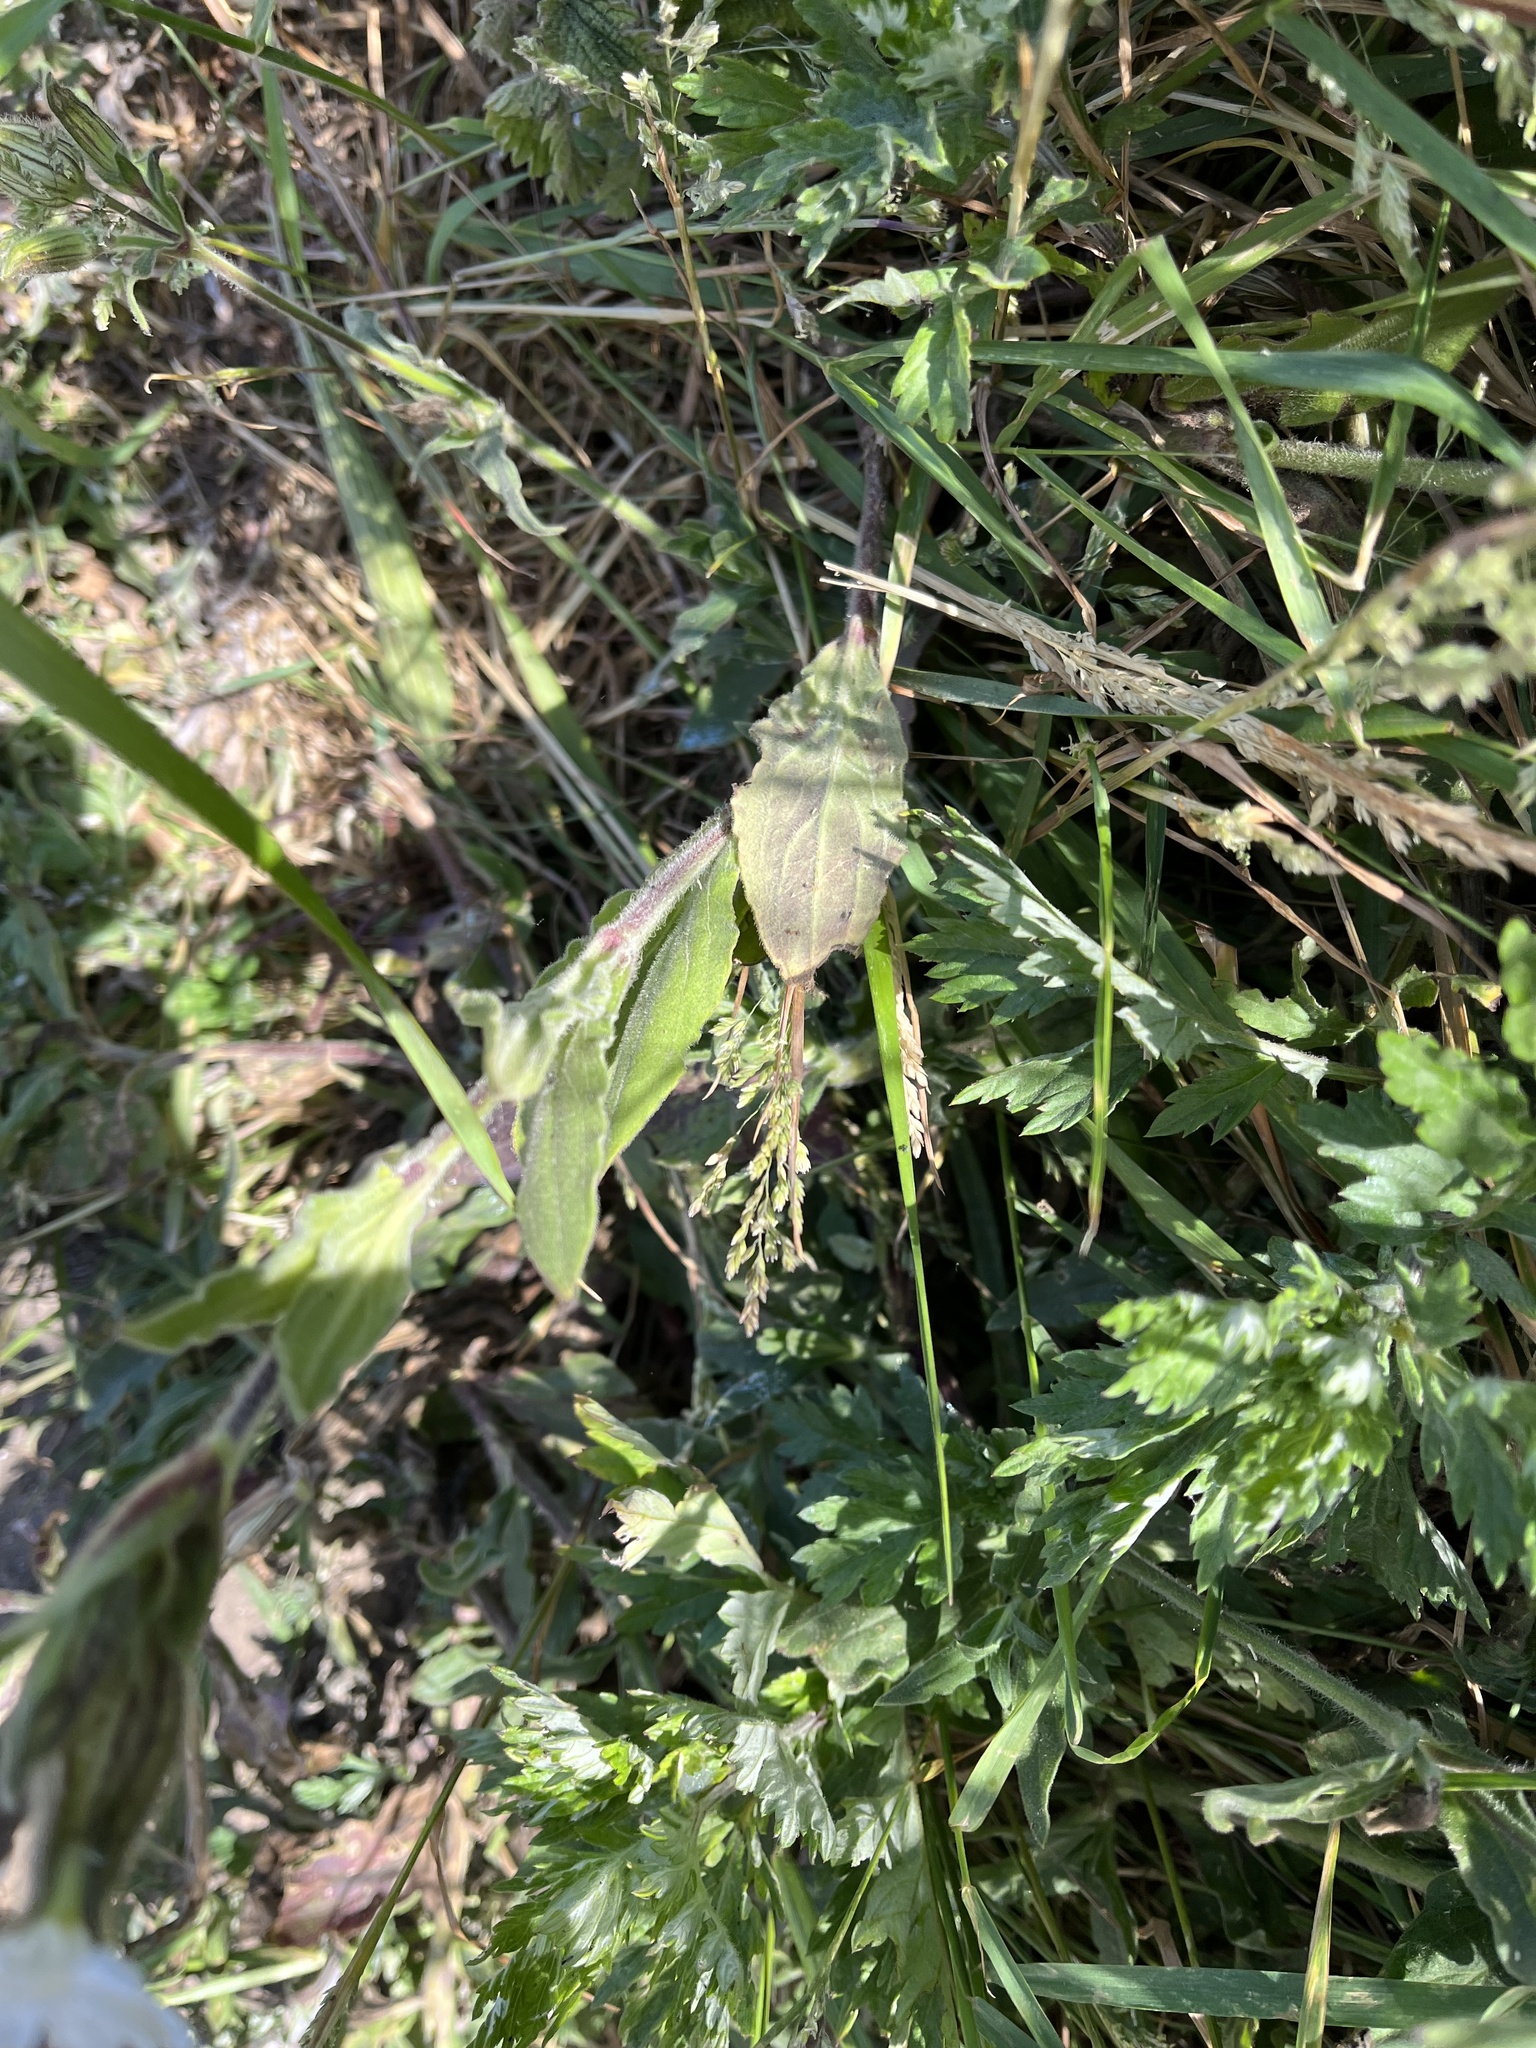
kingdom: Plantae
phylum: Tracheophyta
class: Magnoliopsida
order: Caryophyllales
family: Caryophyllaceae
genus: Silene
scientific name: Silene latifolia
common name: White campion
